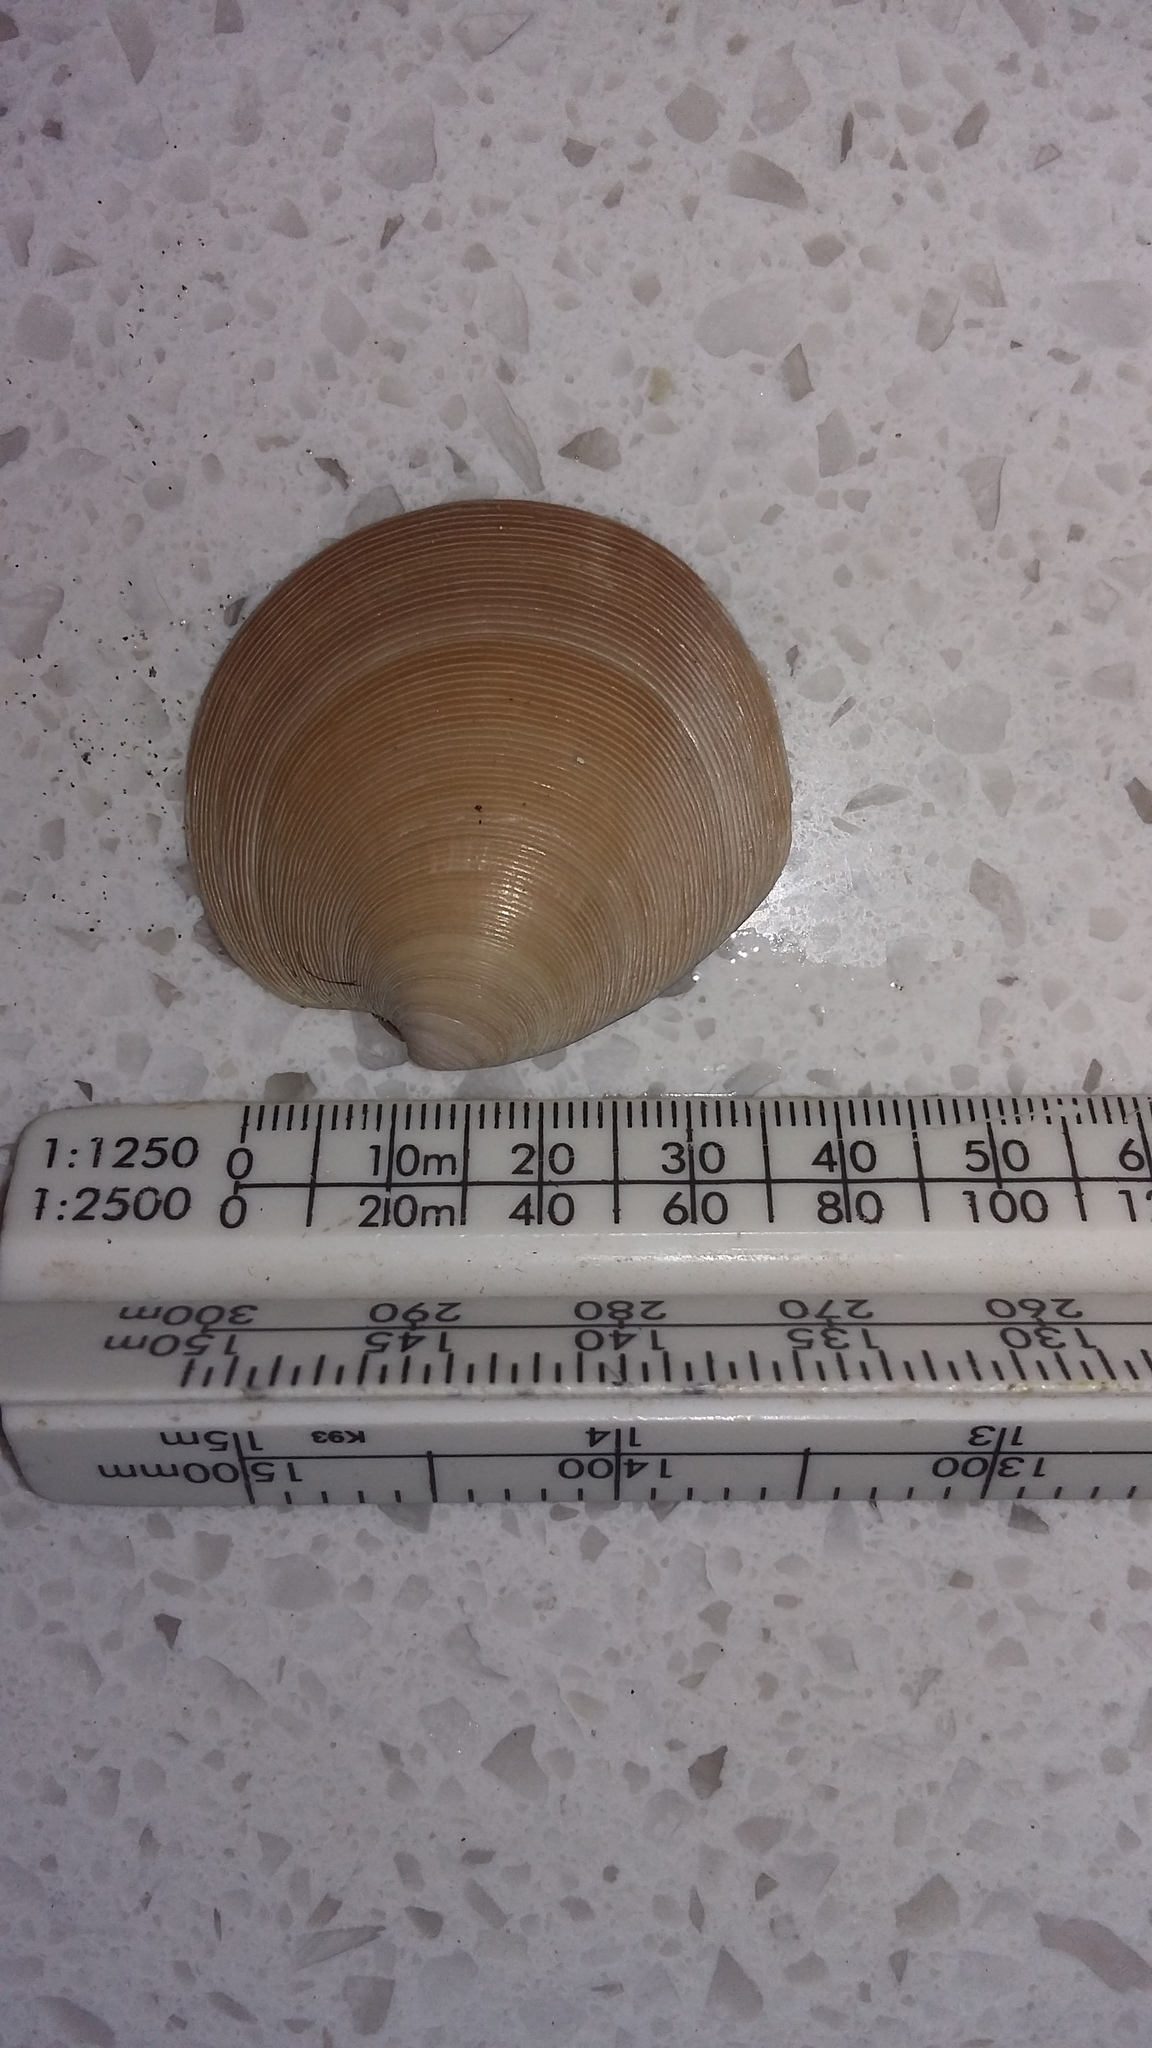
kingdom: Animalia
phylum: Mollusca
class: Bivalvia
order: Venerida
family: Veneridae
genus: Dosinia
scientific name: Dosinia anus
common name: Old-woman dosinia
